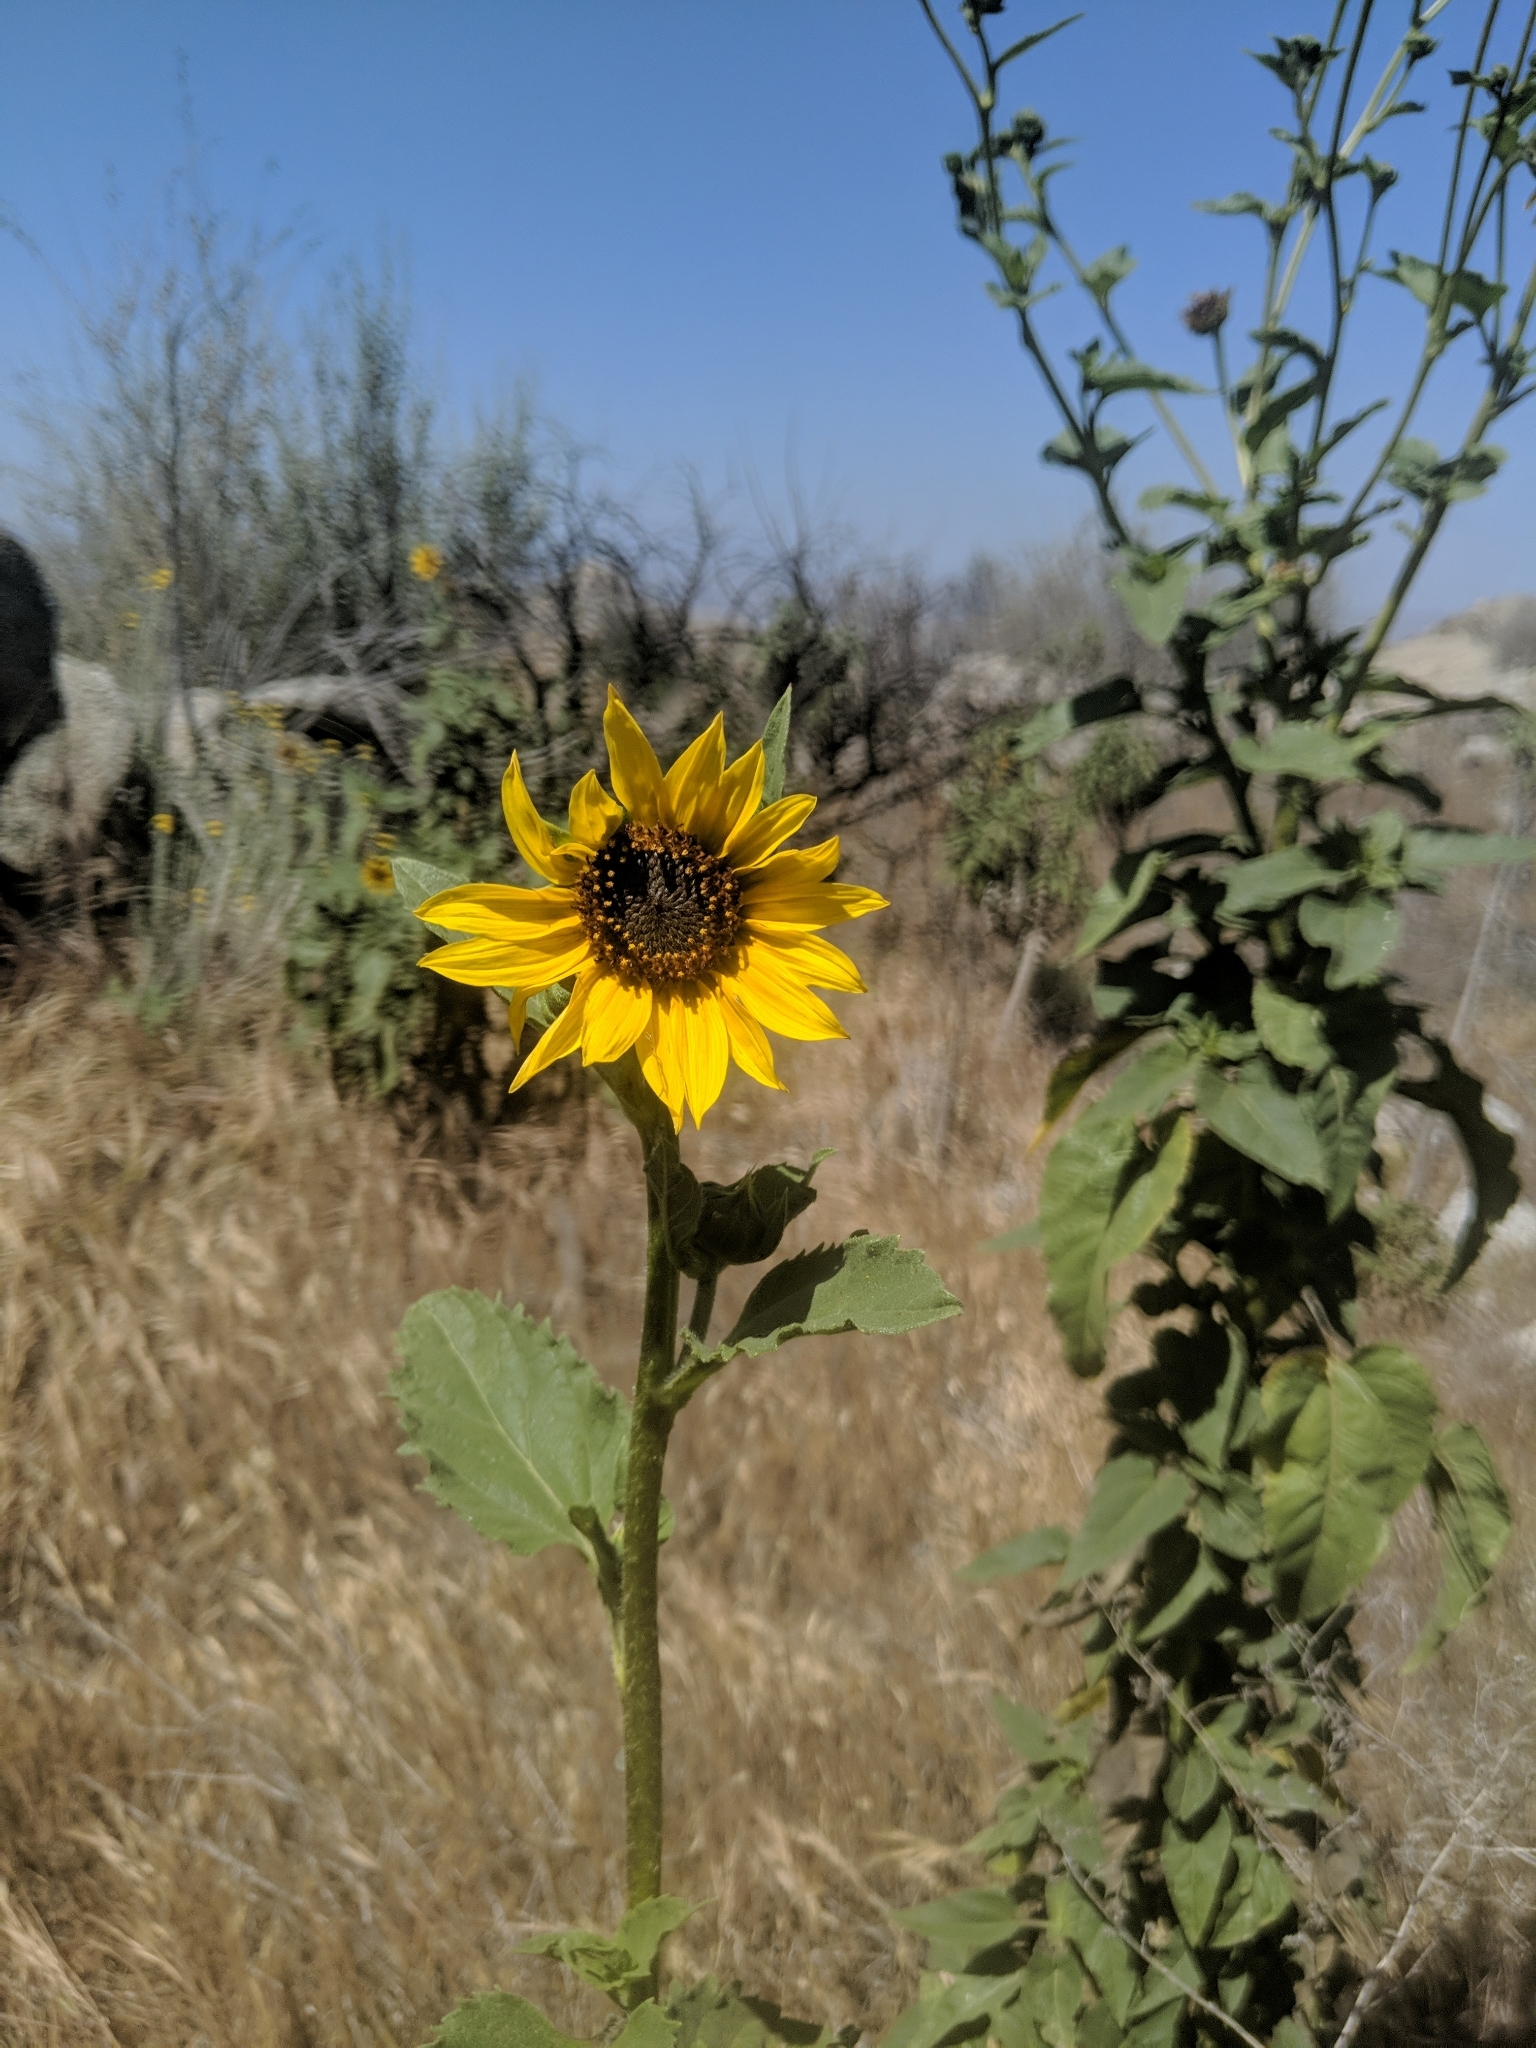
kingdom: Plantae
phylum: Tracheophyta
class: Magnoliopsida
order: Asterales
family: Asteraceae
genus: Helianthus
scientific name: Helianthus annuus
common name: Sunflower
